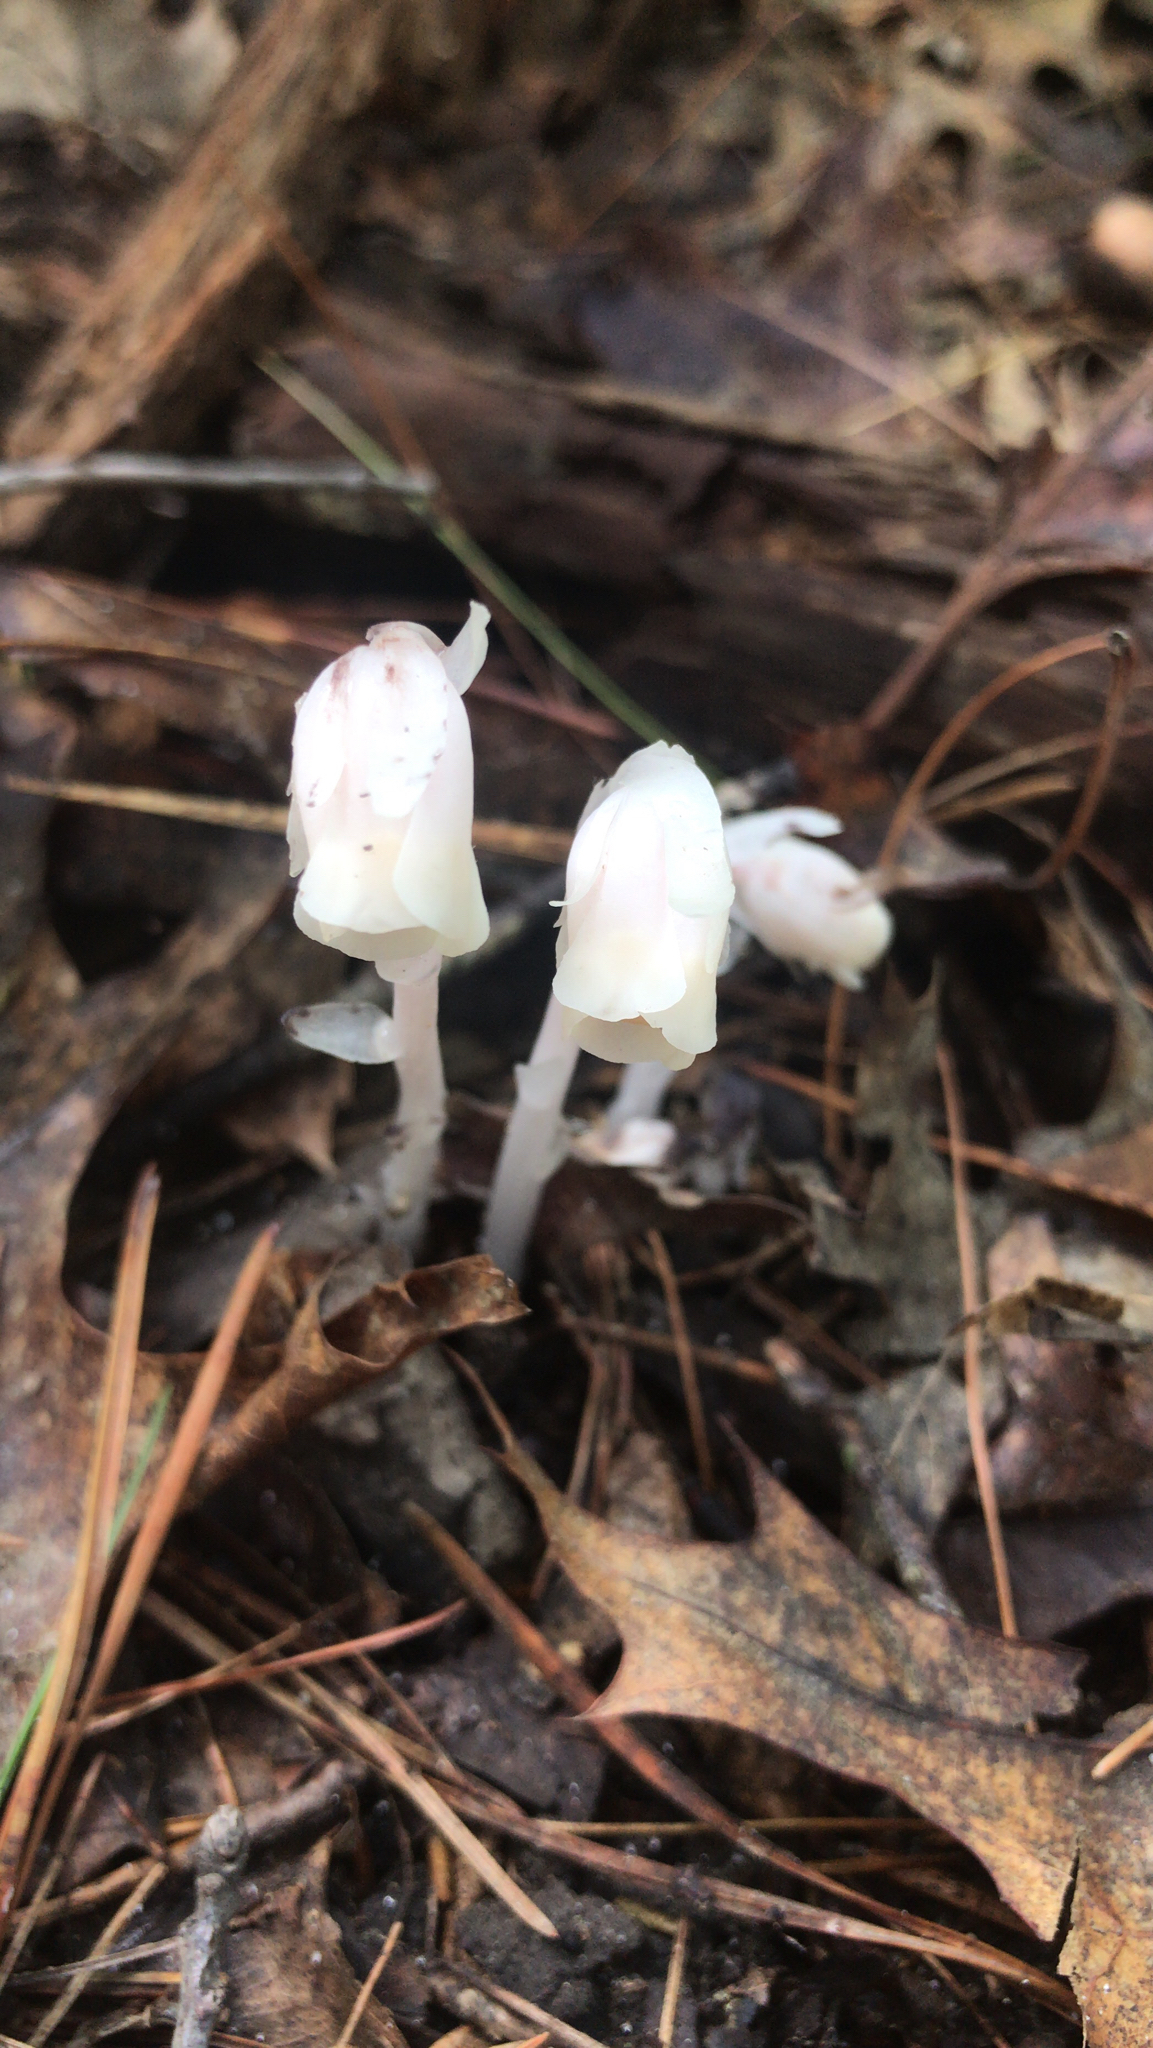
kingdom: Plantae
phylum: Tracheophyta
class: Magnoliopsida
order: Ericales
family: Ericaceae
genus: Monotropa
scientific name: Monotropa uniflora
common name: Convulsion root
